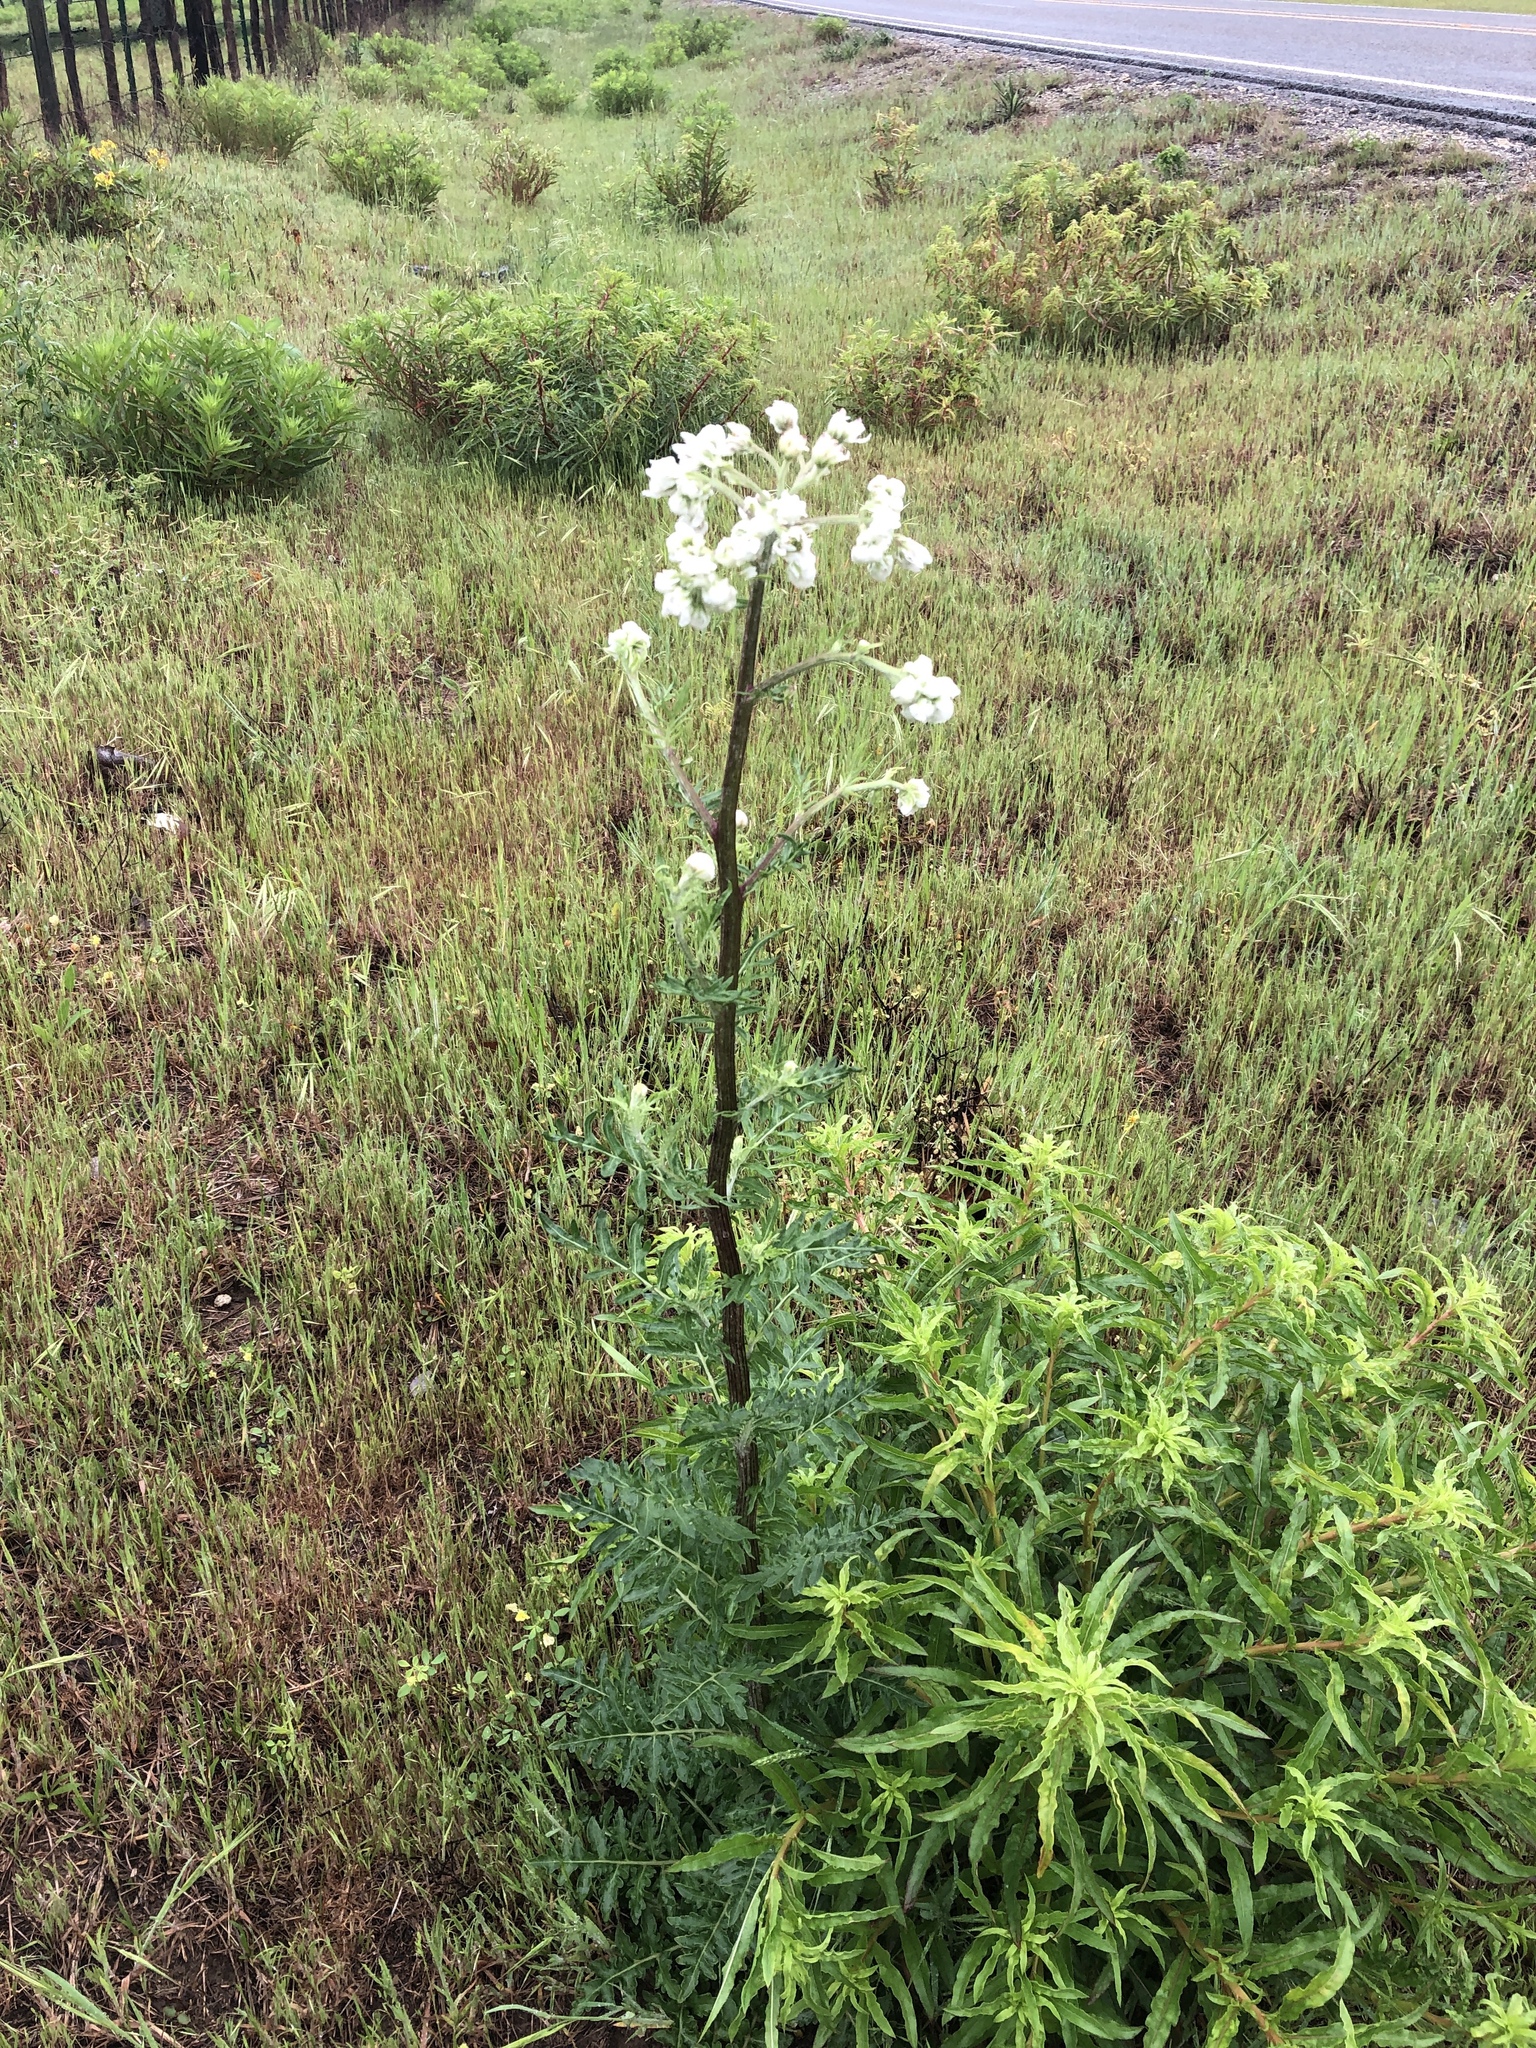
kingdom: Plantae
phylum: Tracheophyta
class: Magnoliopsida
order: Asterales
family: Asteraceae
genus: Hymenopappus
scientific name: Hymenopappus artemisiifolius
